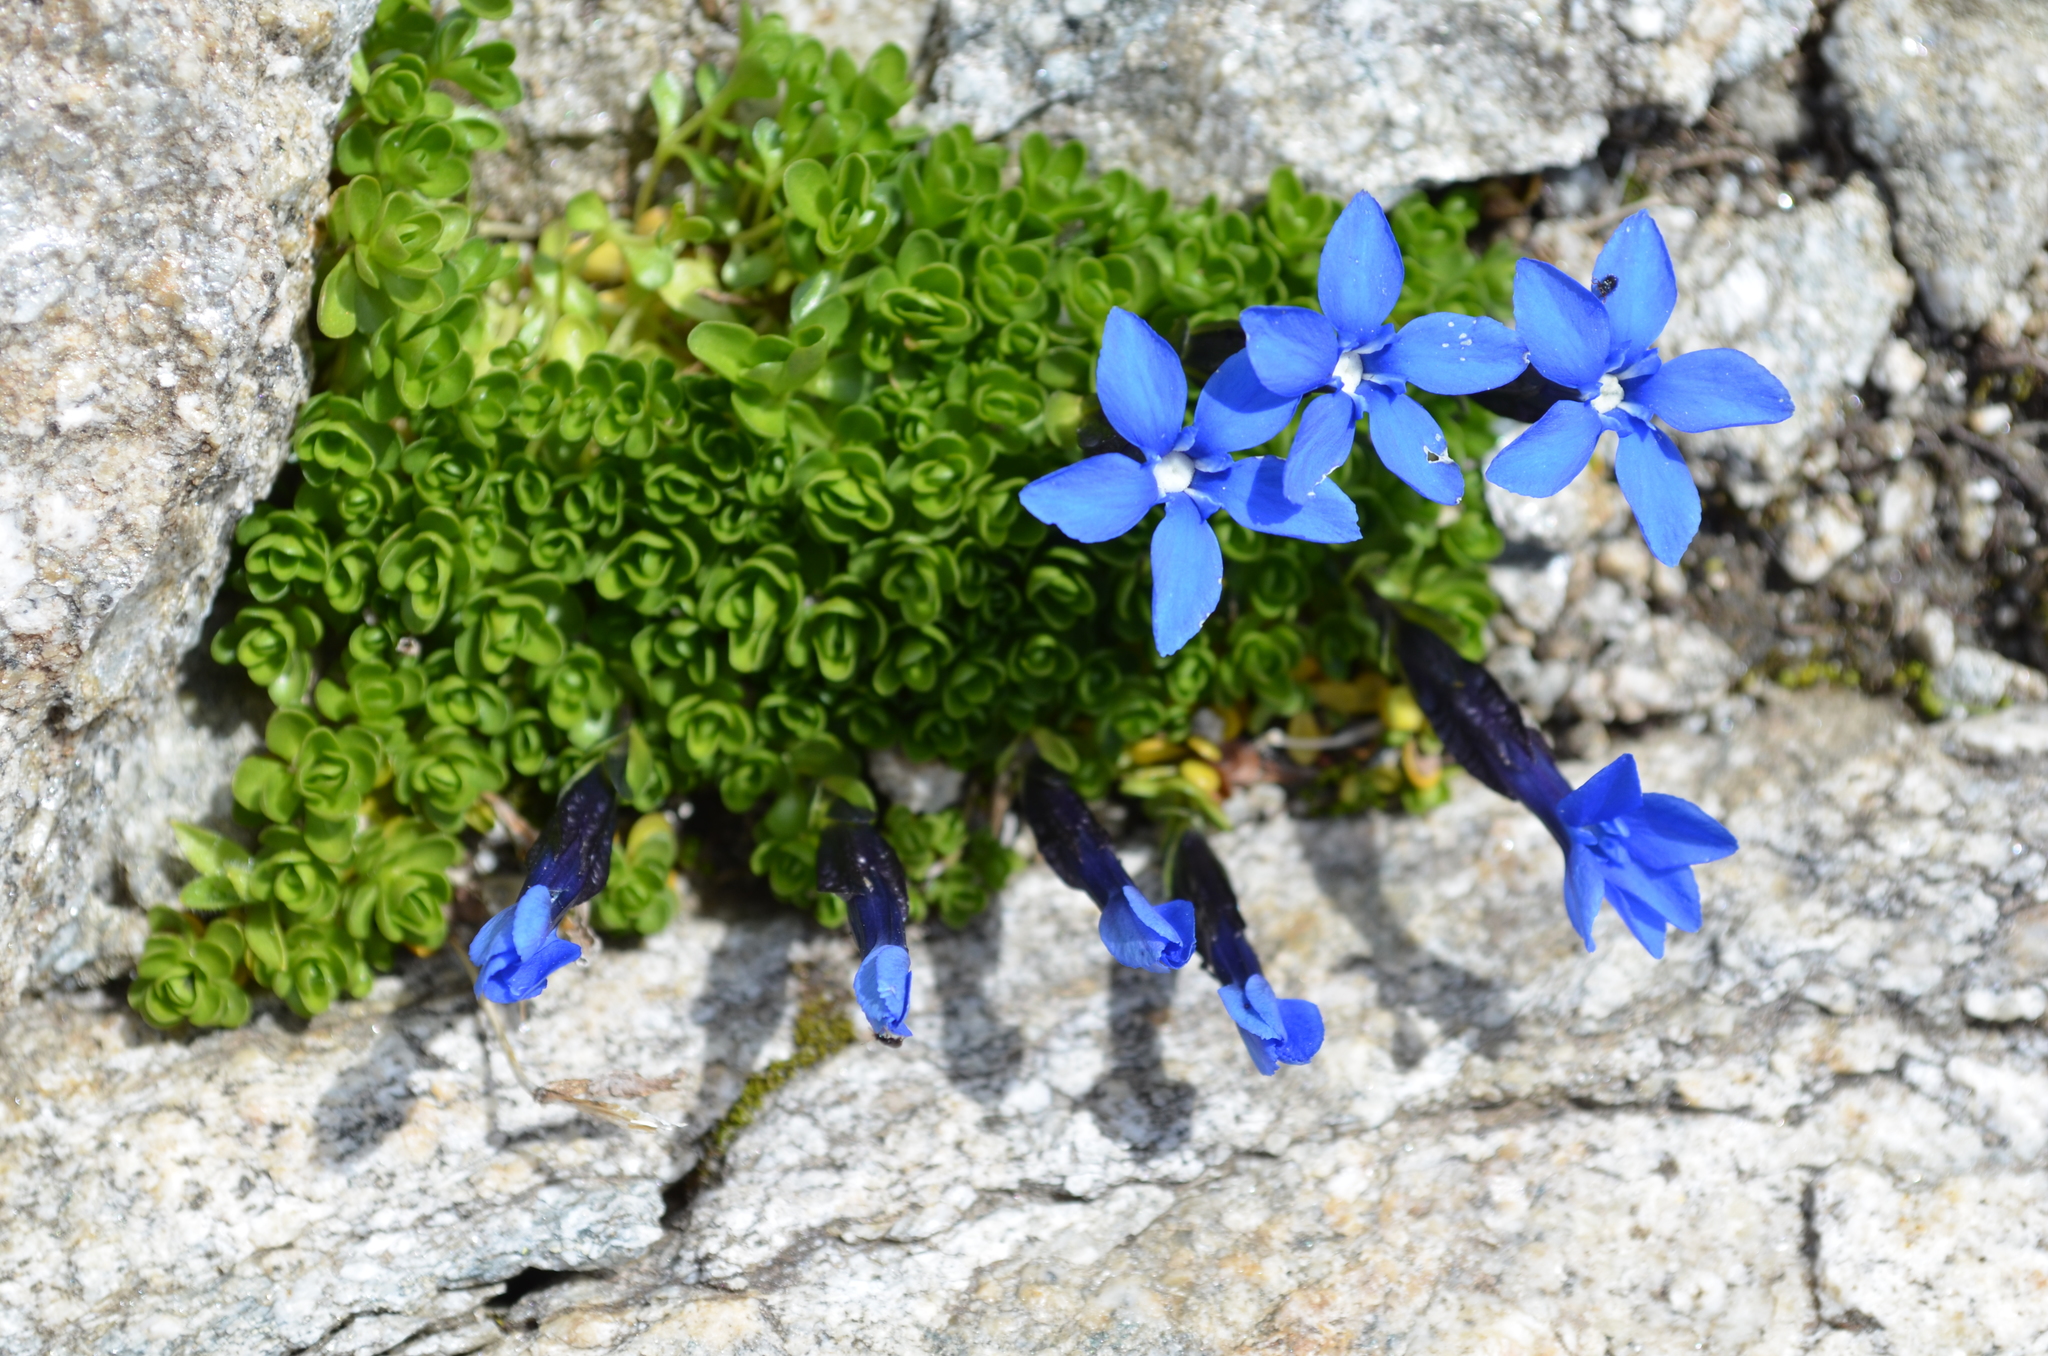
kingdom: Plantae
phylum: Tracheophyta
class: Magnoliopsida
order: Gentianales
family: Gentianaceae
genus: Gentiana
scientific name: Gentiana bavarica
